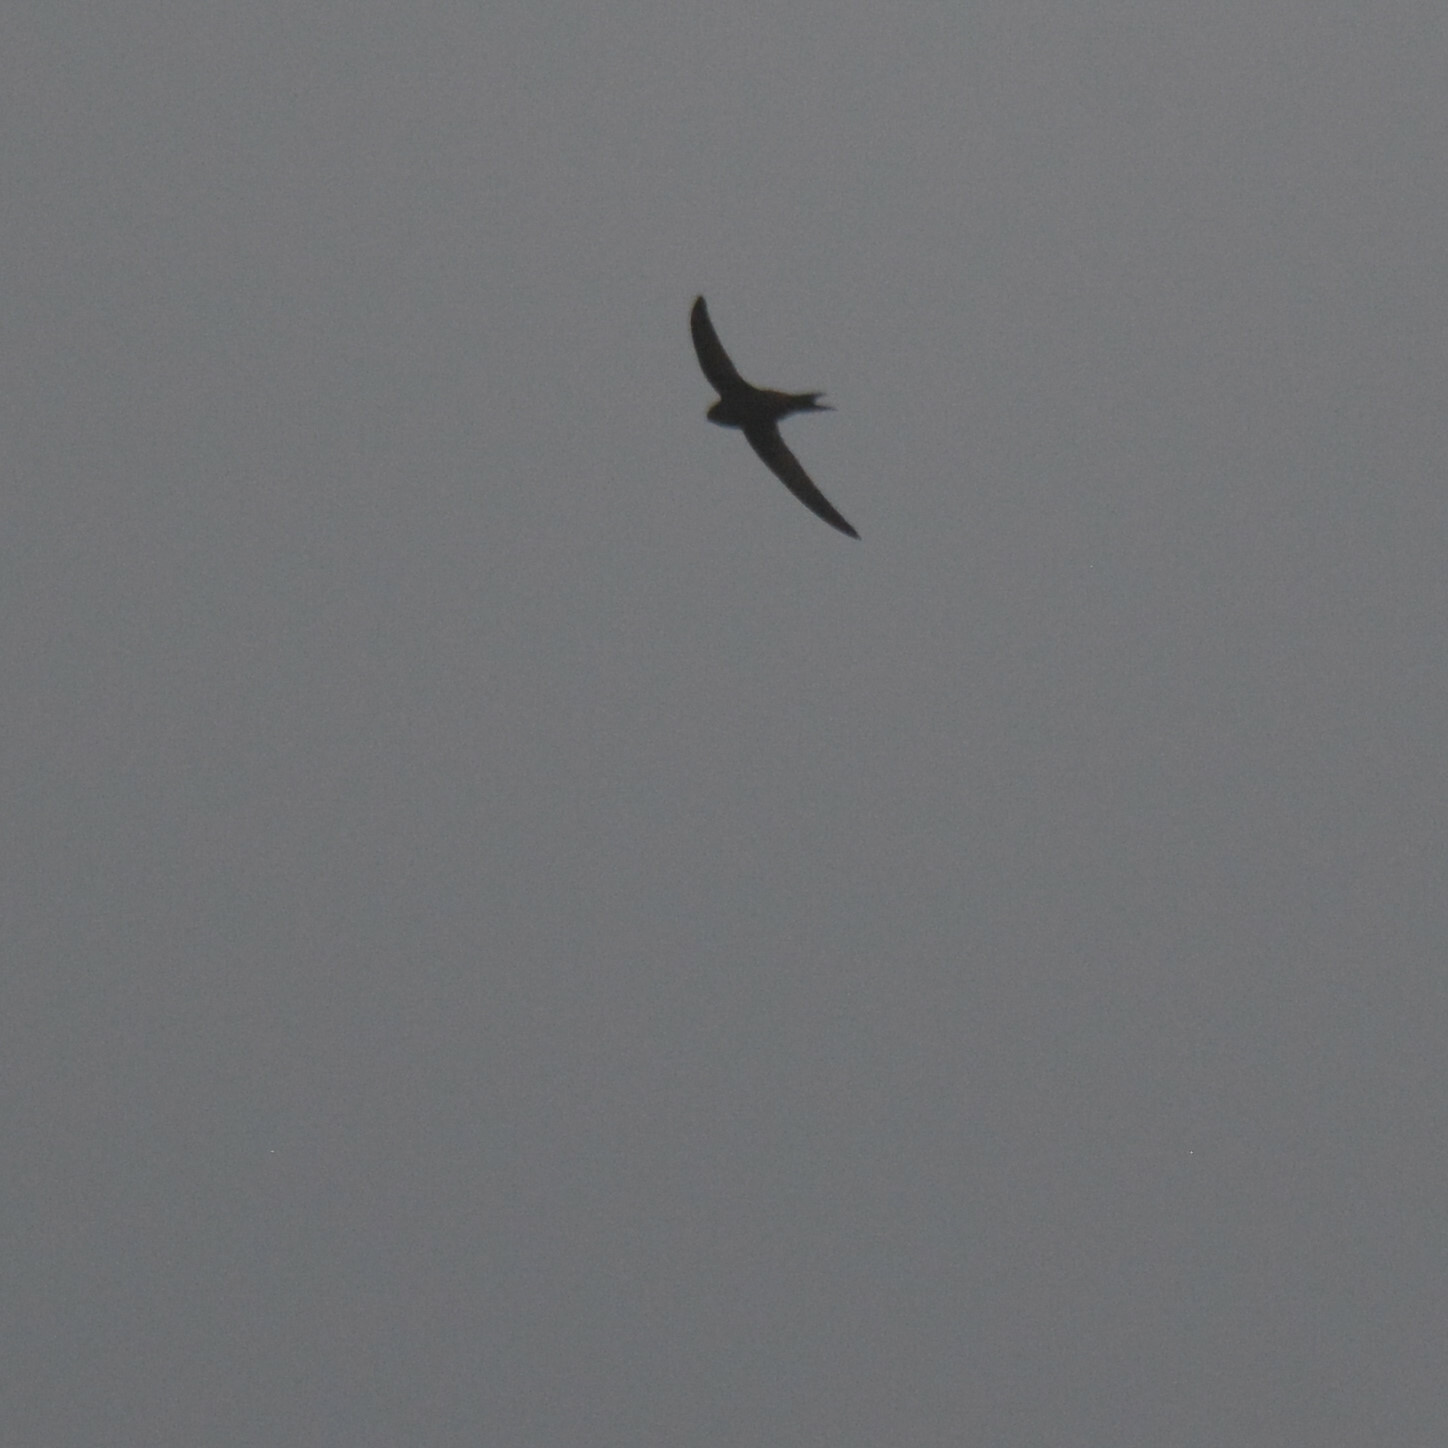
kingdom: Animalia
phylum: Chordata
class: Aves
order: Apodiformes
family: Apodidae
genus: Apus
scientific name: Apus apus
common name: Common swift
